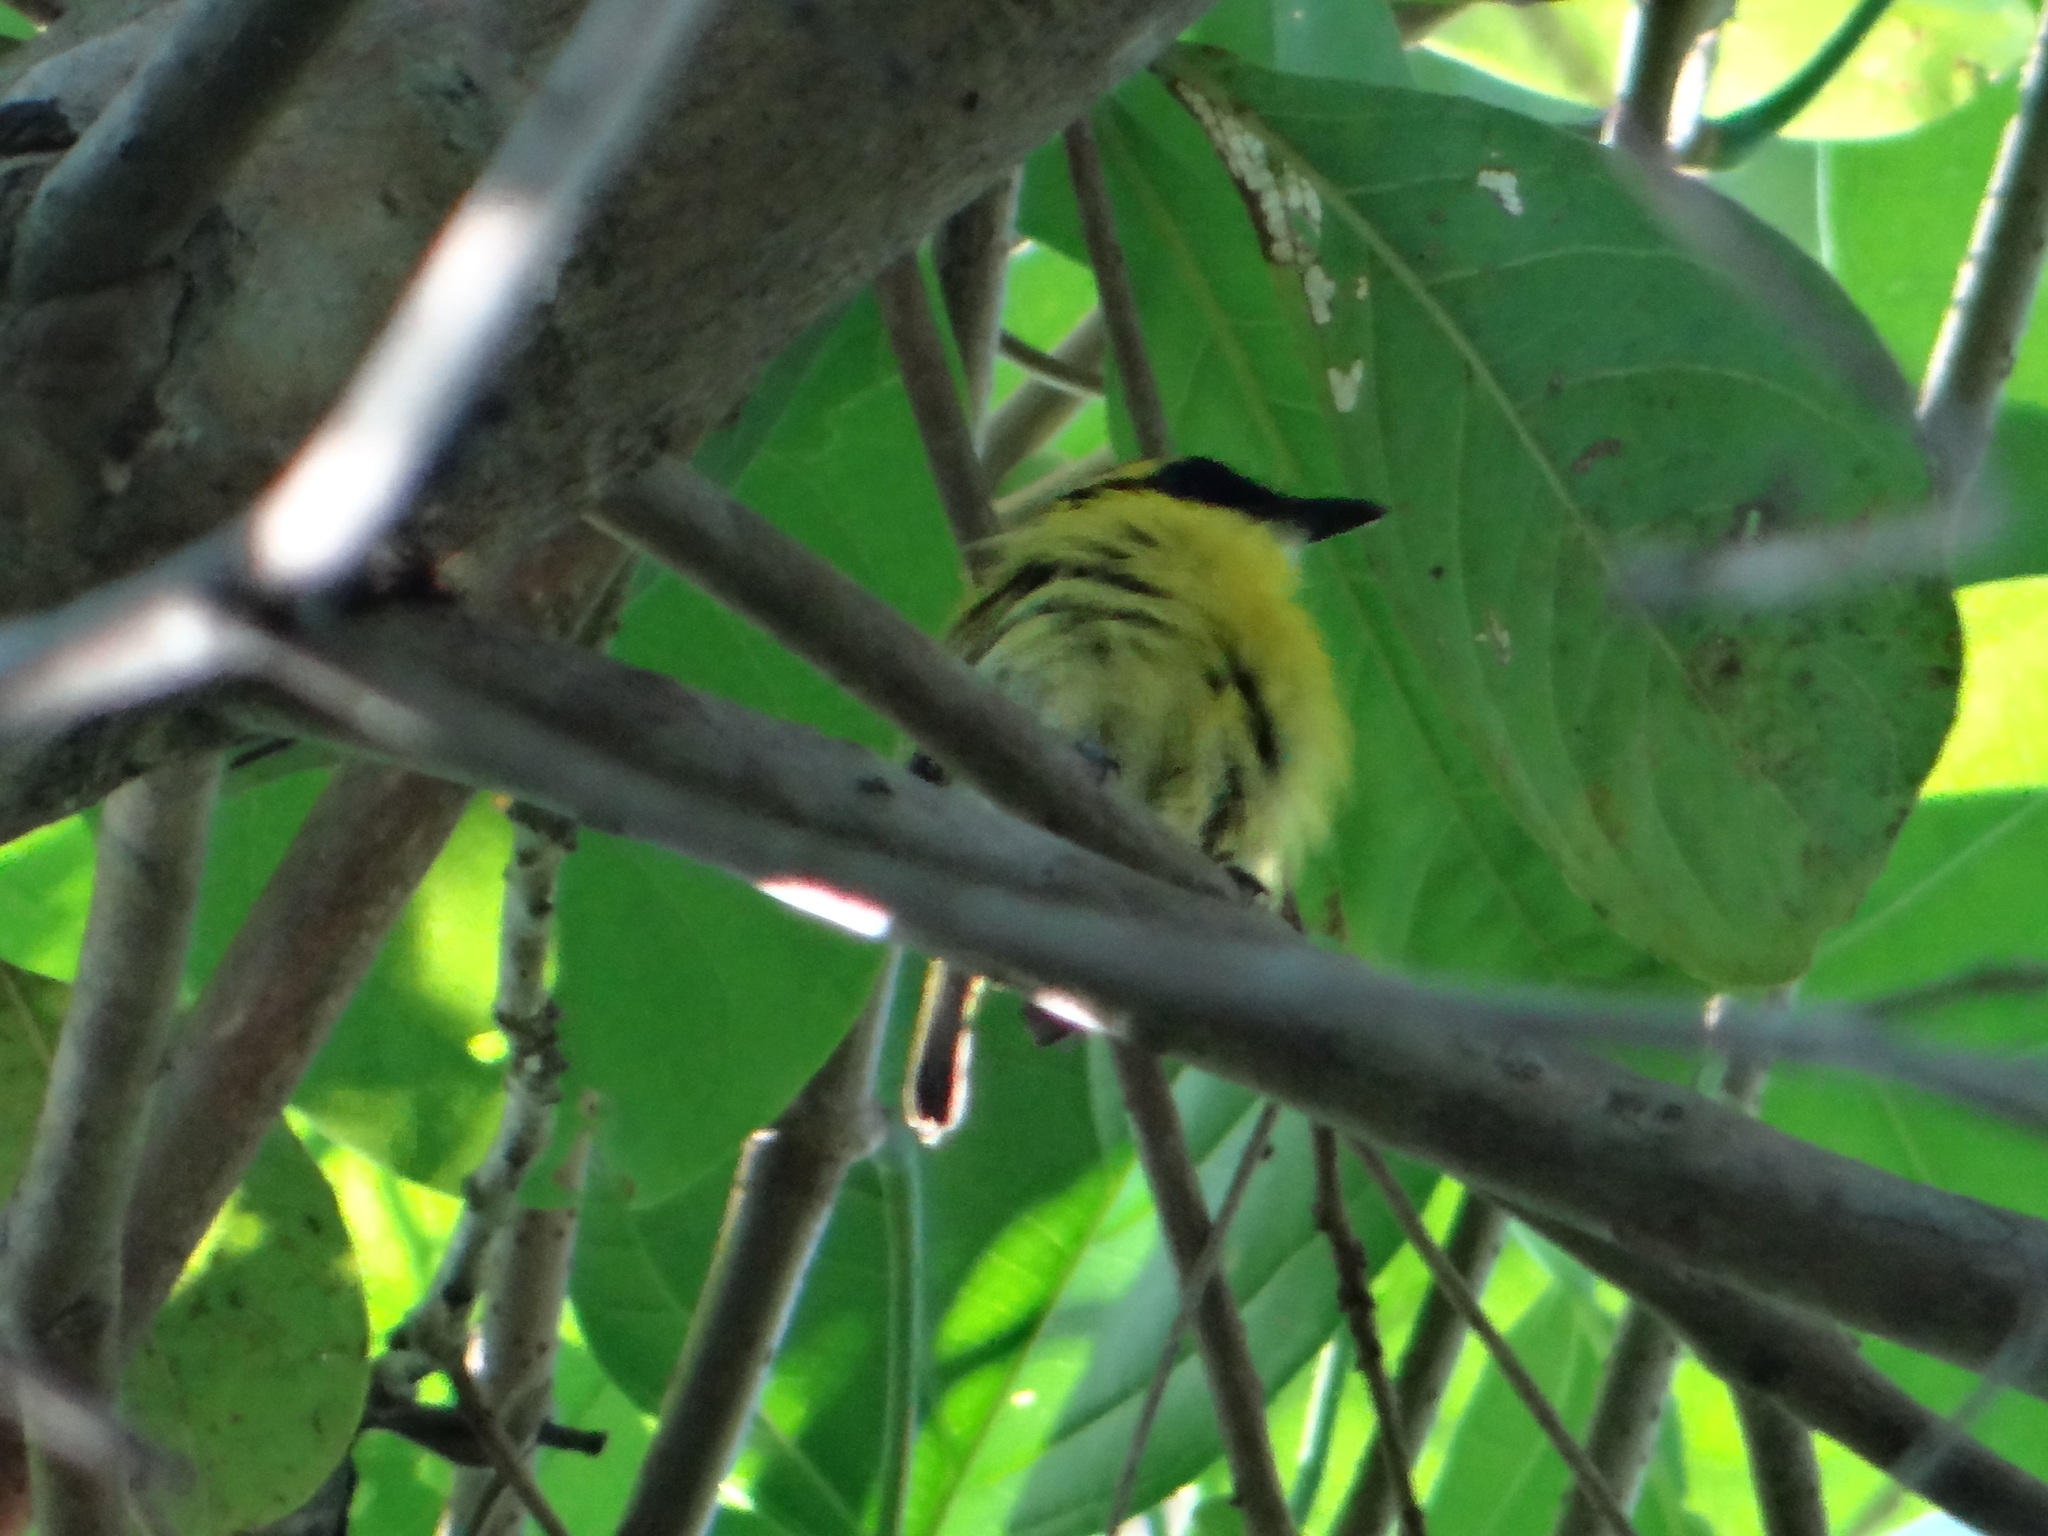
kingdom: Animalia
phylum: Chordata
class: Aves
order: Passeriformes
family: Tyrannidae
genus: Todirostrum
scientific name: Todirostrum chrysocrotaphum
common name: Yellow-browed tody-flycatcher
